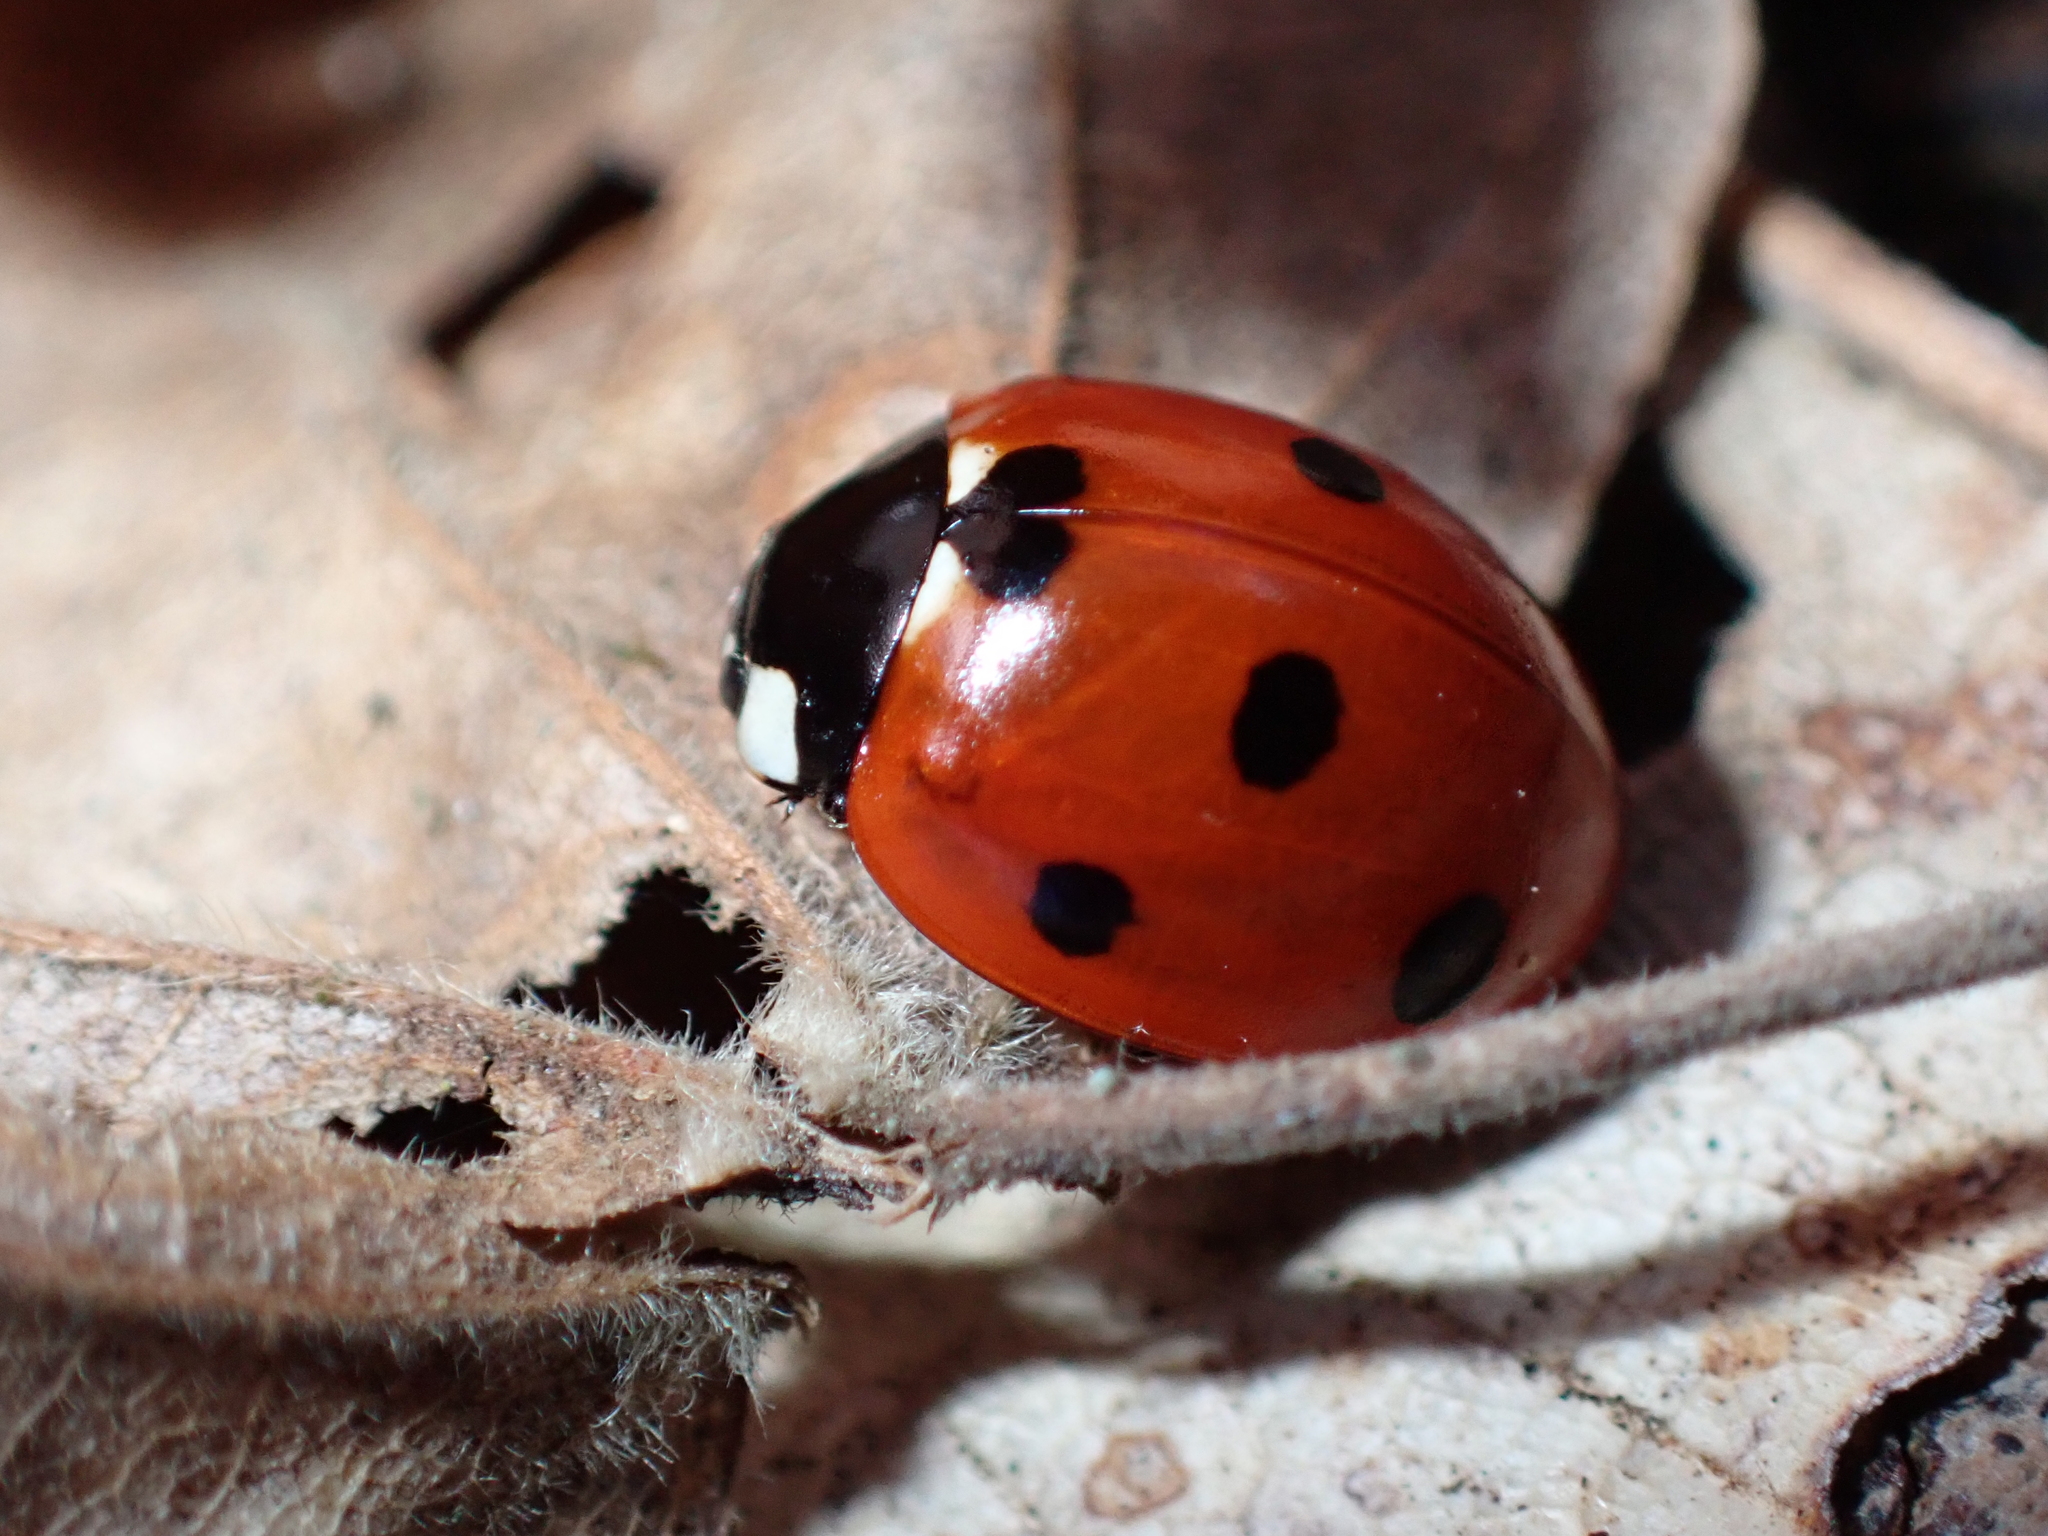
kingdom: Animalia
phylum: Arthropoda
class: Insecta
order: Coleoptera
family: Coccinellidae
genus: Coccinella
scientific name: Coccinella septempunctata
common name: Sevenspotted lady beetle
